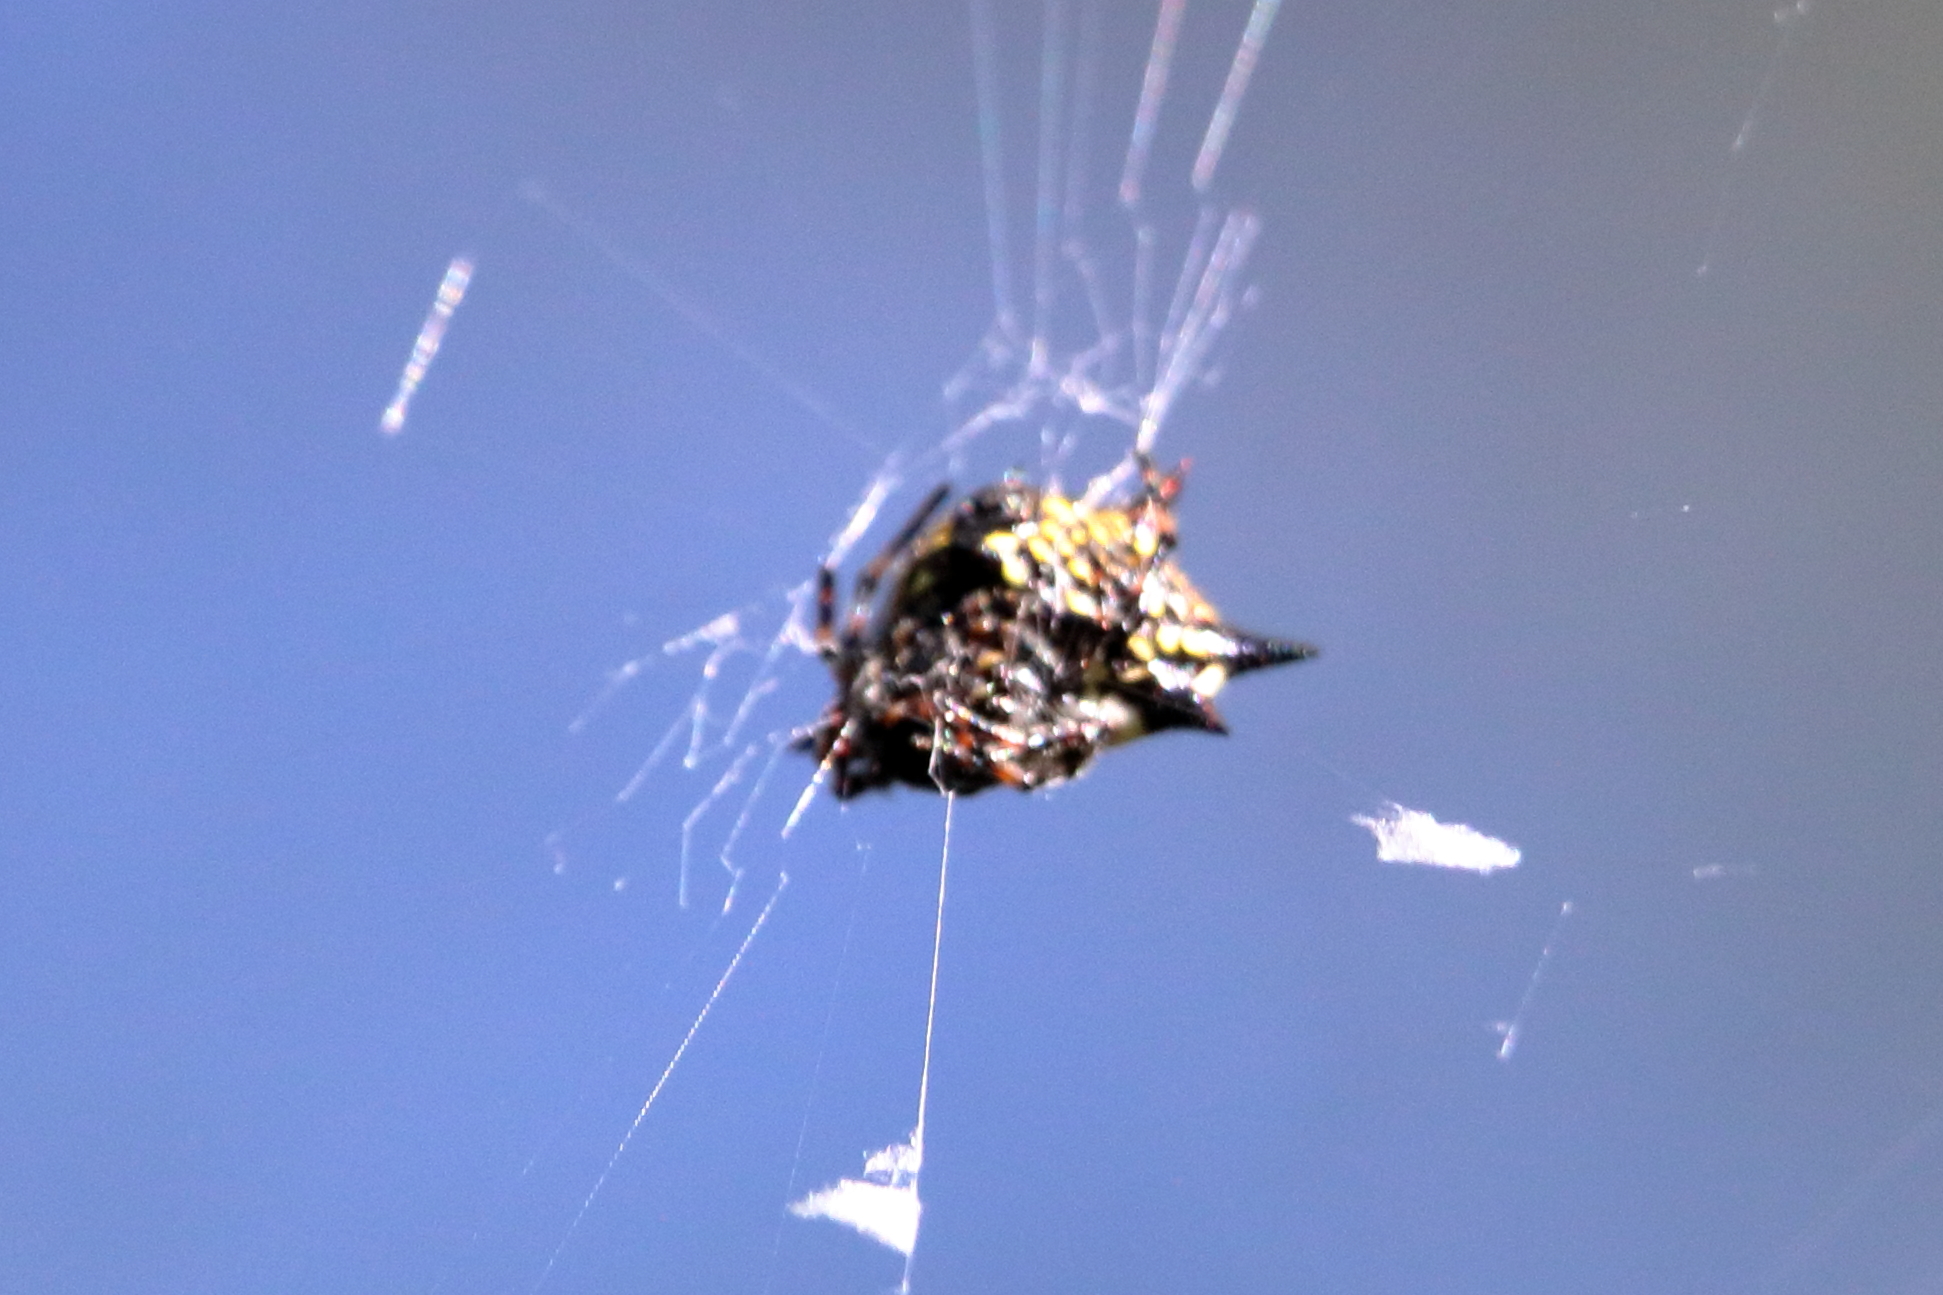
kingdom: Animalia
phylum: Arthropoda
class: Arachnida
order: Araneae
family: Araneidae
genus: Gasteracantha
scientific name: Gasteracantha cancriformis
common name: Orb weavers
